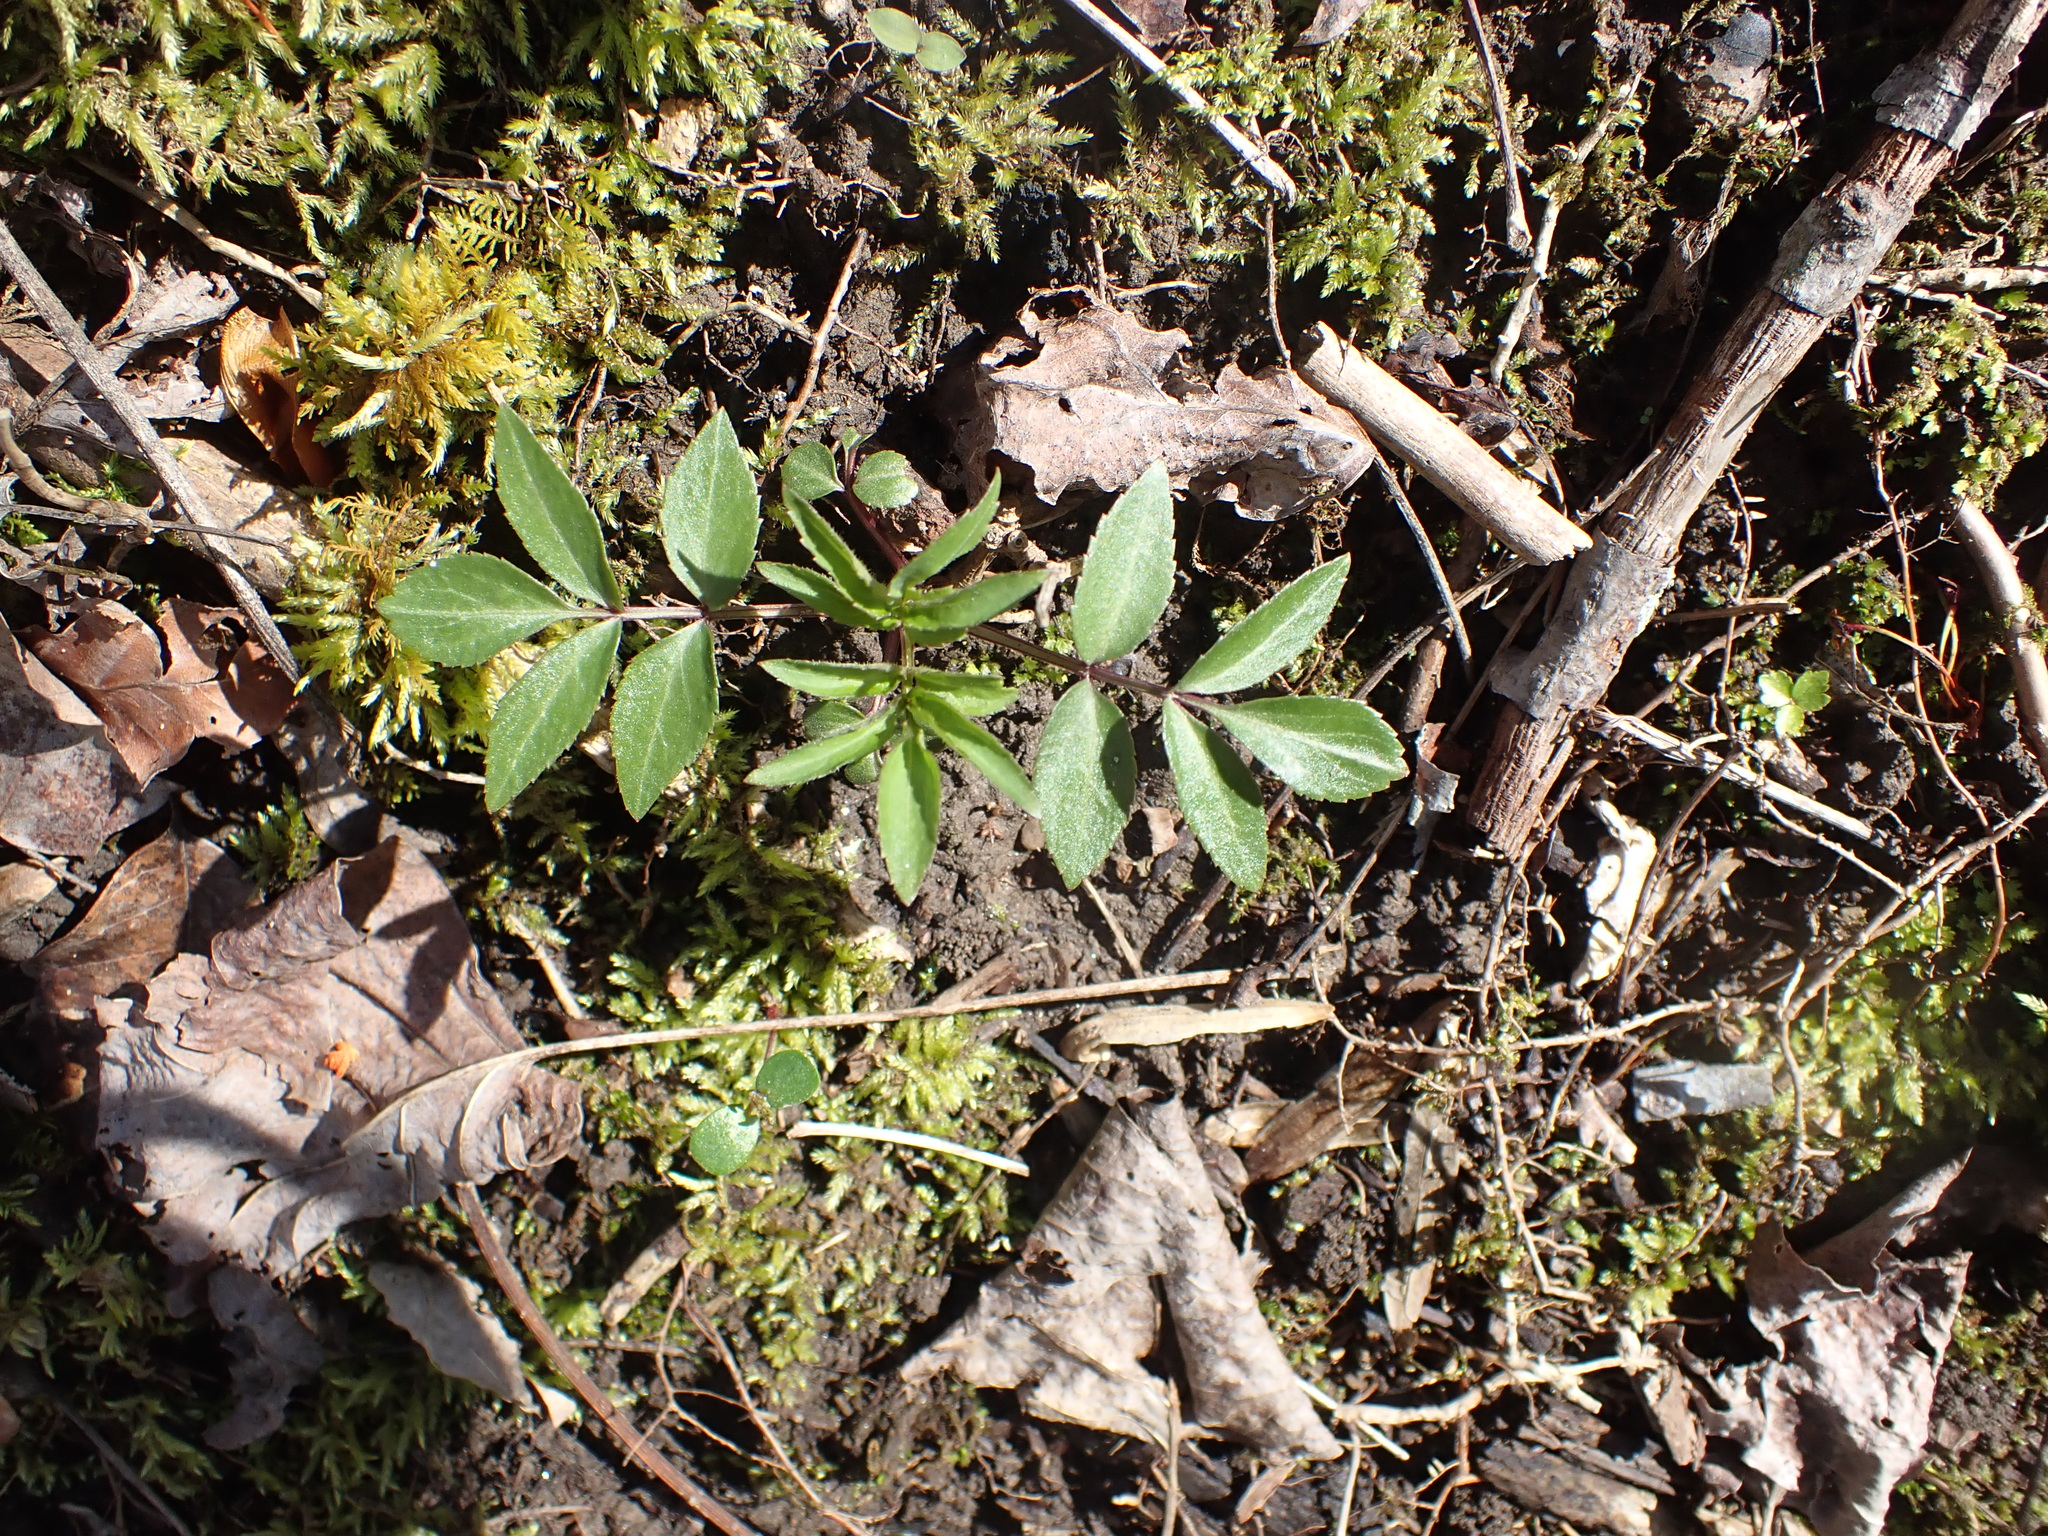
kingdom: Plantae
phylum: Tracheophyta
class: Magnoliopsida
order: Dipsacales
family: Viburnaceae
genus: Sambucus
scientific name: Sambucus canadensis
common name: American elder
